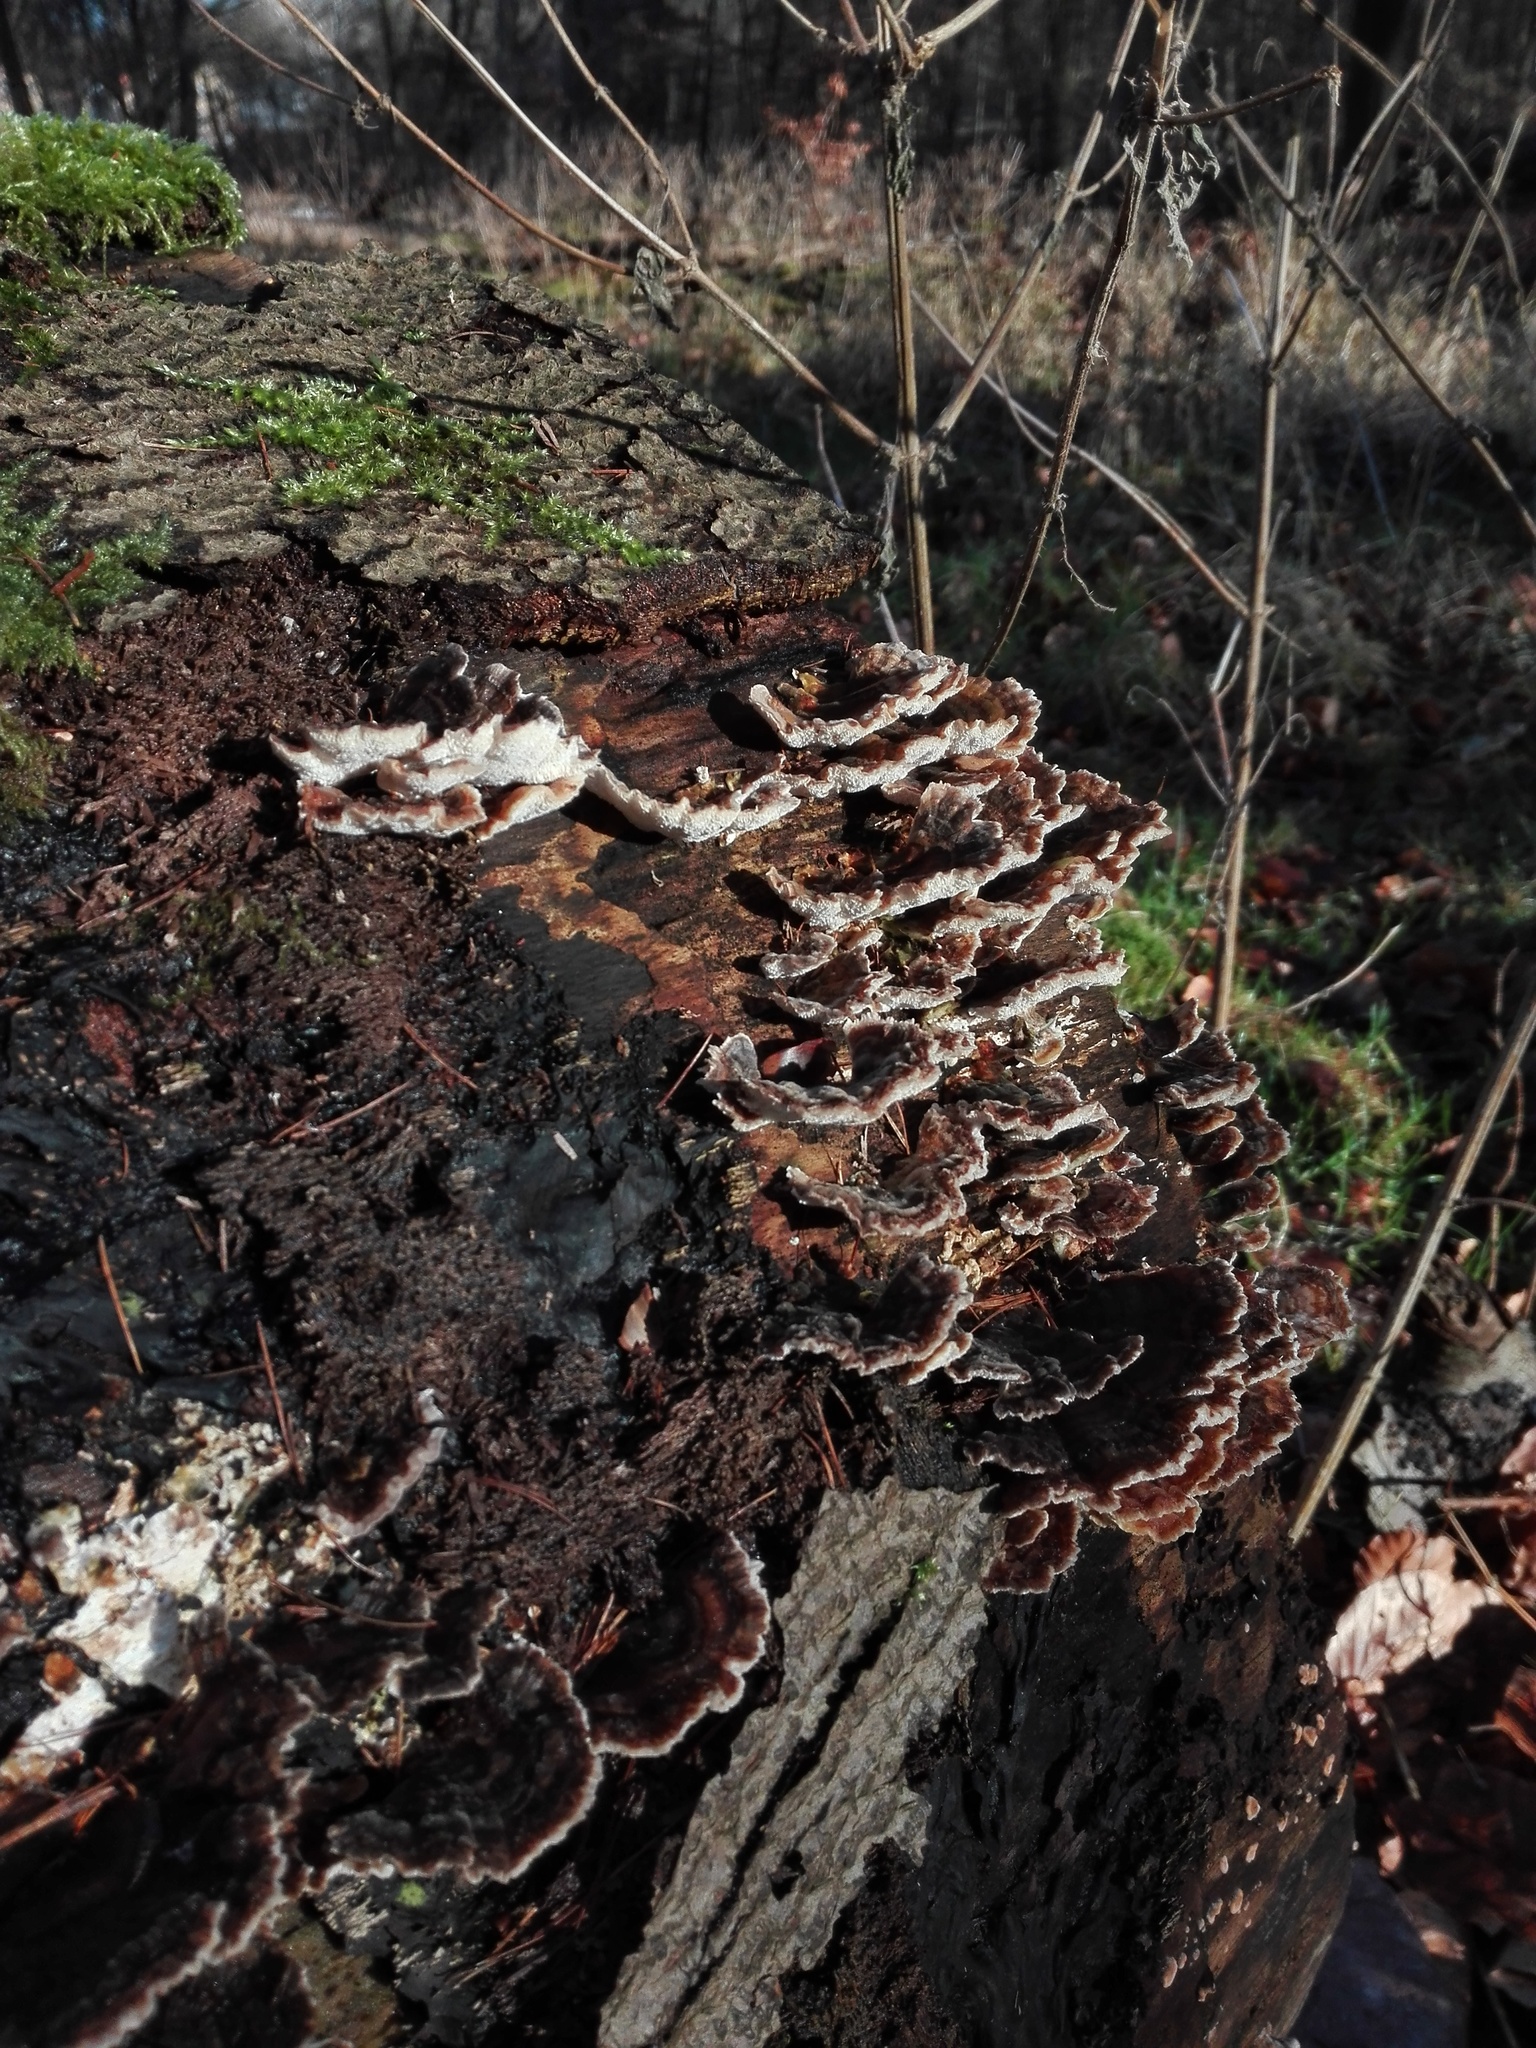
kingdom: Fungi
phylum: Basidiomycota
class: Agaricomycetes
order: Polyporales
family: Polyporaceae
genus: Trametes
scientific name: Trametes versicolor
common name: Turkeytail
